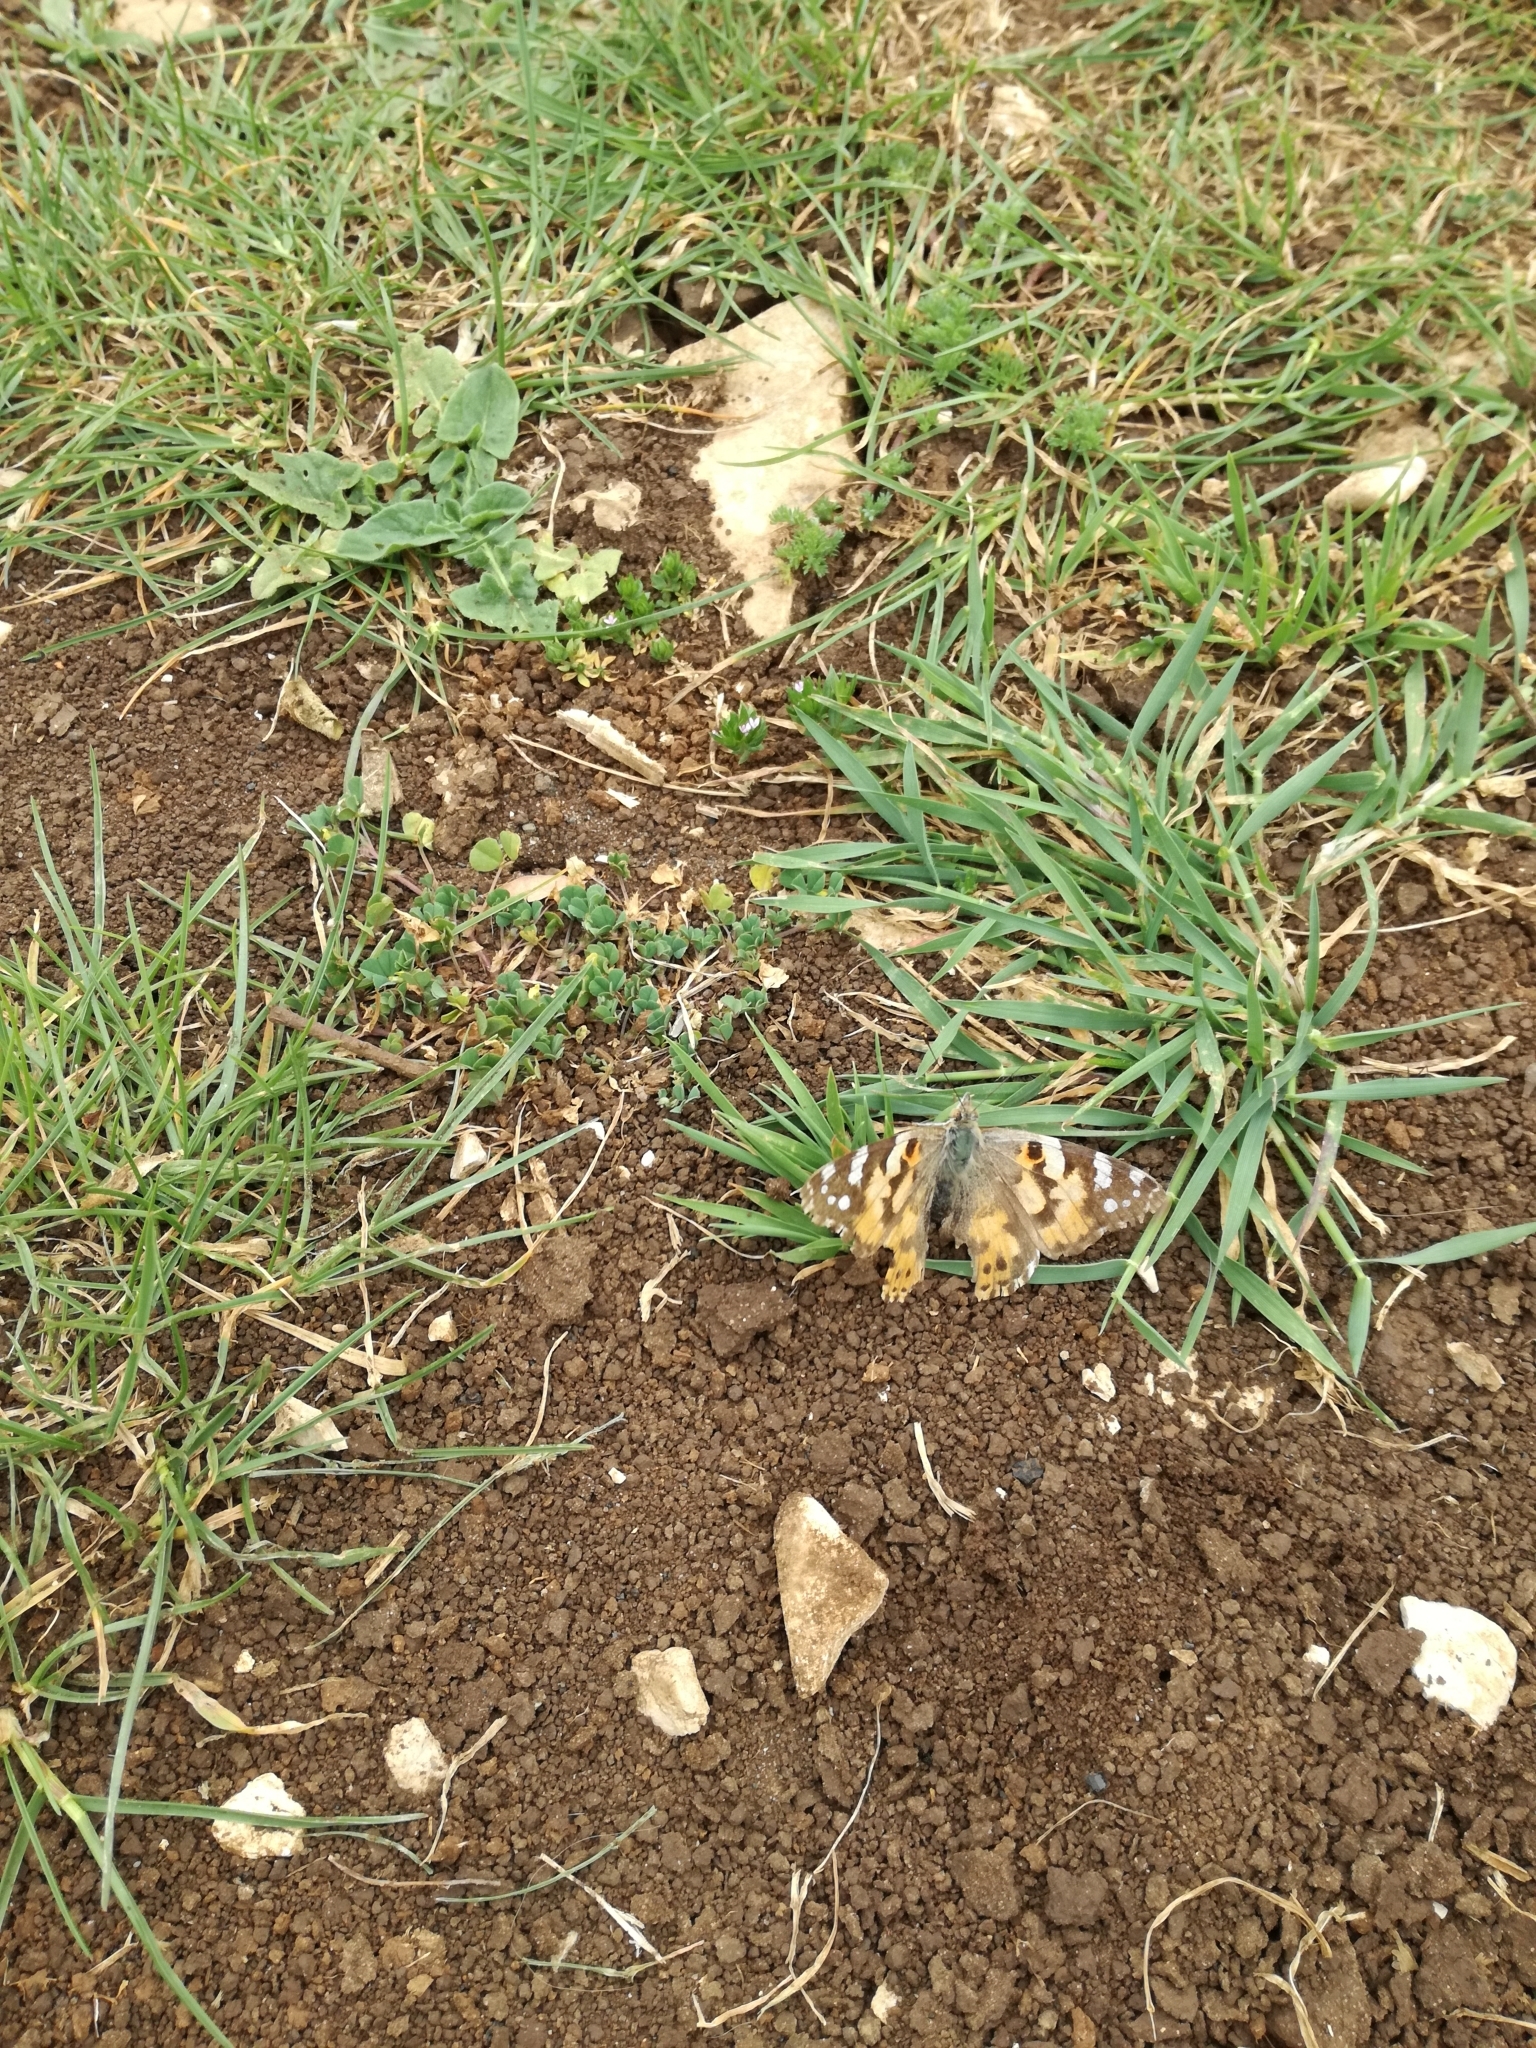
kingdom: Animalia
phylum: Arthropoda
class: Insecta
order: Lepidoptera
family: Nymphalidae
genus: Vanessa
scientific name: Vanessa cardui
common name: Painted lady
